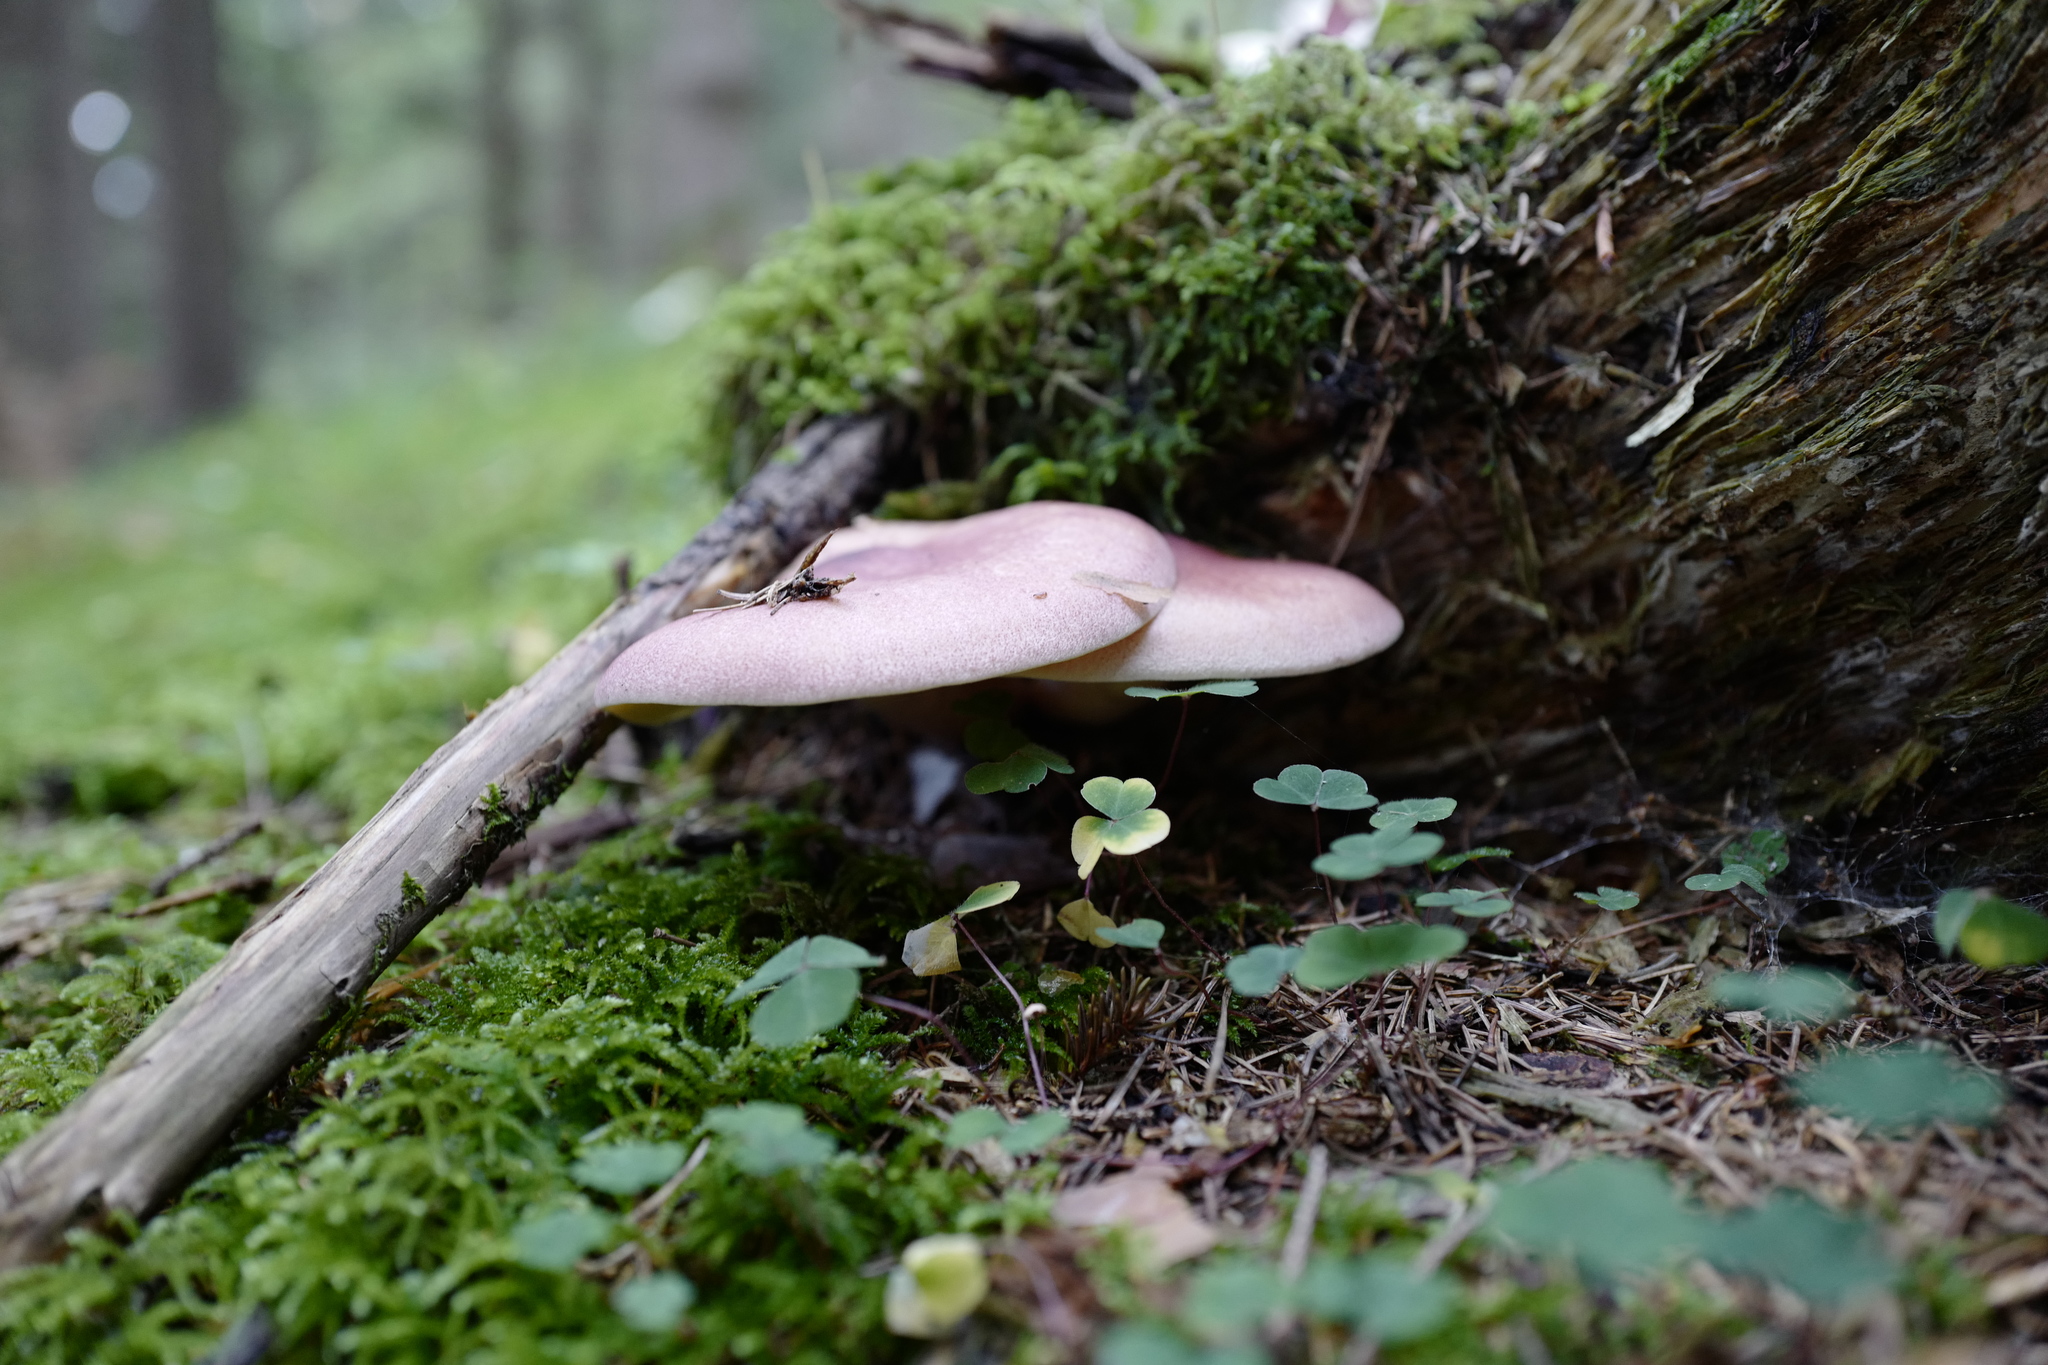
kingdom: Fungi
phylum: Basidiomycota
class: Agaricomycetes
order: Agaricales
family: Tricholomataceae
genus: Tricholomopsis
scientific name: Tricholomopsis rutilans
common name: Plums and custard
